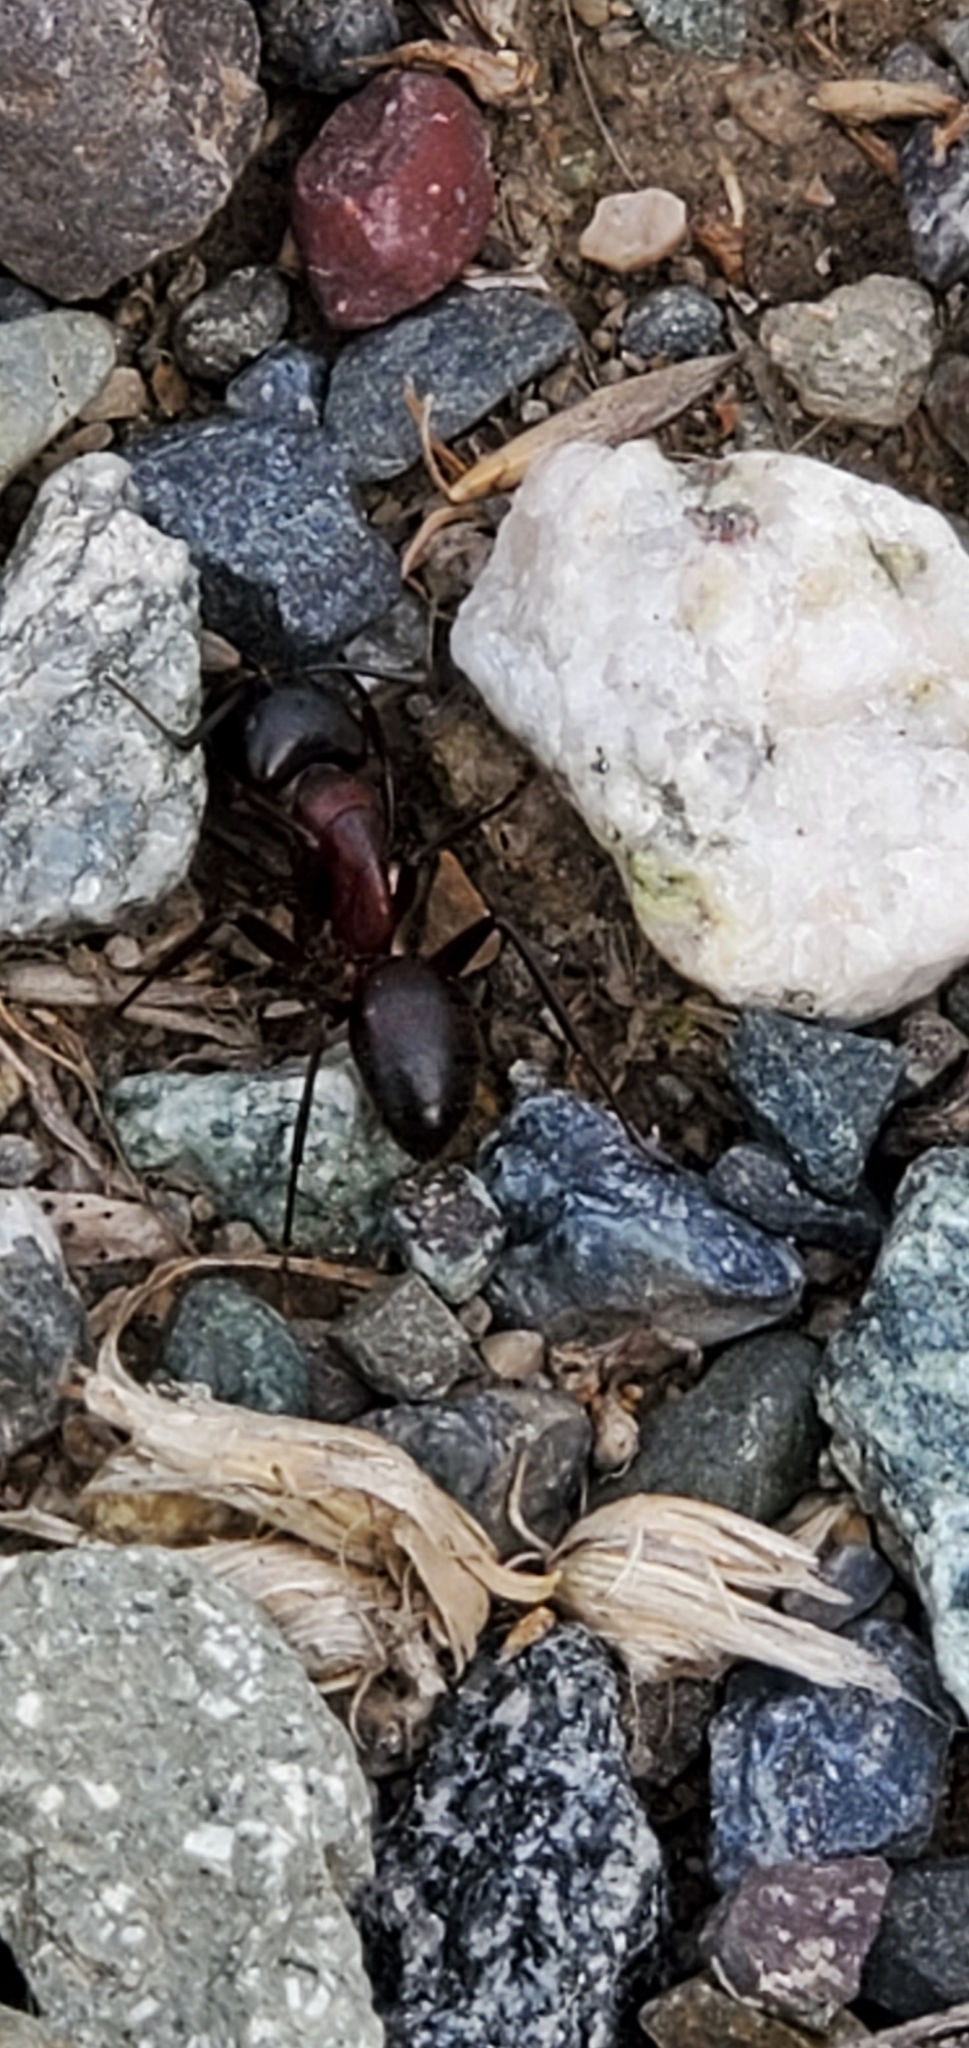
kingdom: Animalia
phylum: Arthropoda
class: Insecta
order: Hymenoptera
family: Formicidae
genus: Camponotus
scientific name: Camponotus vicinus
